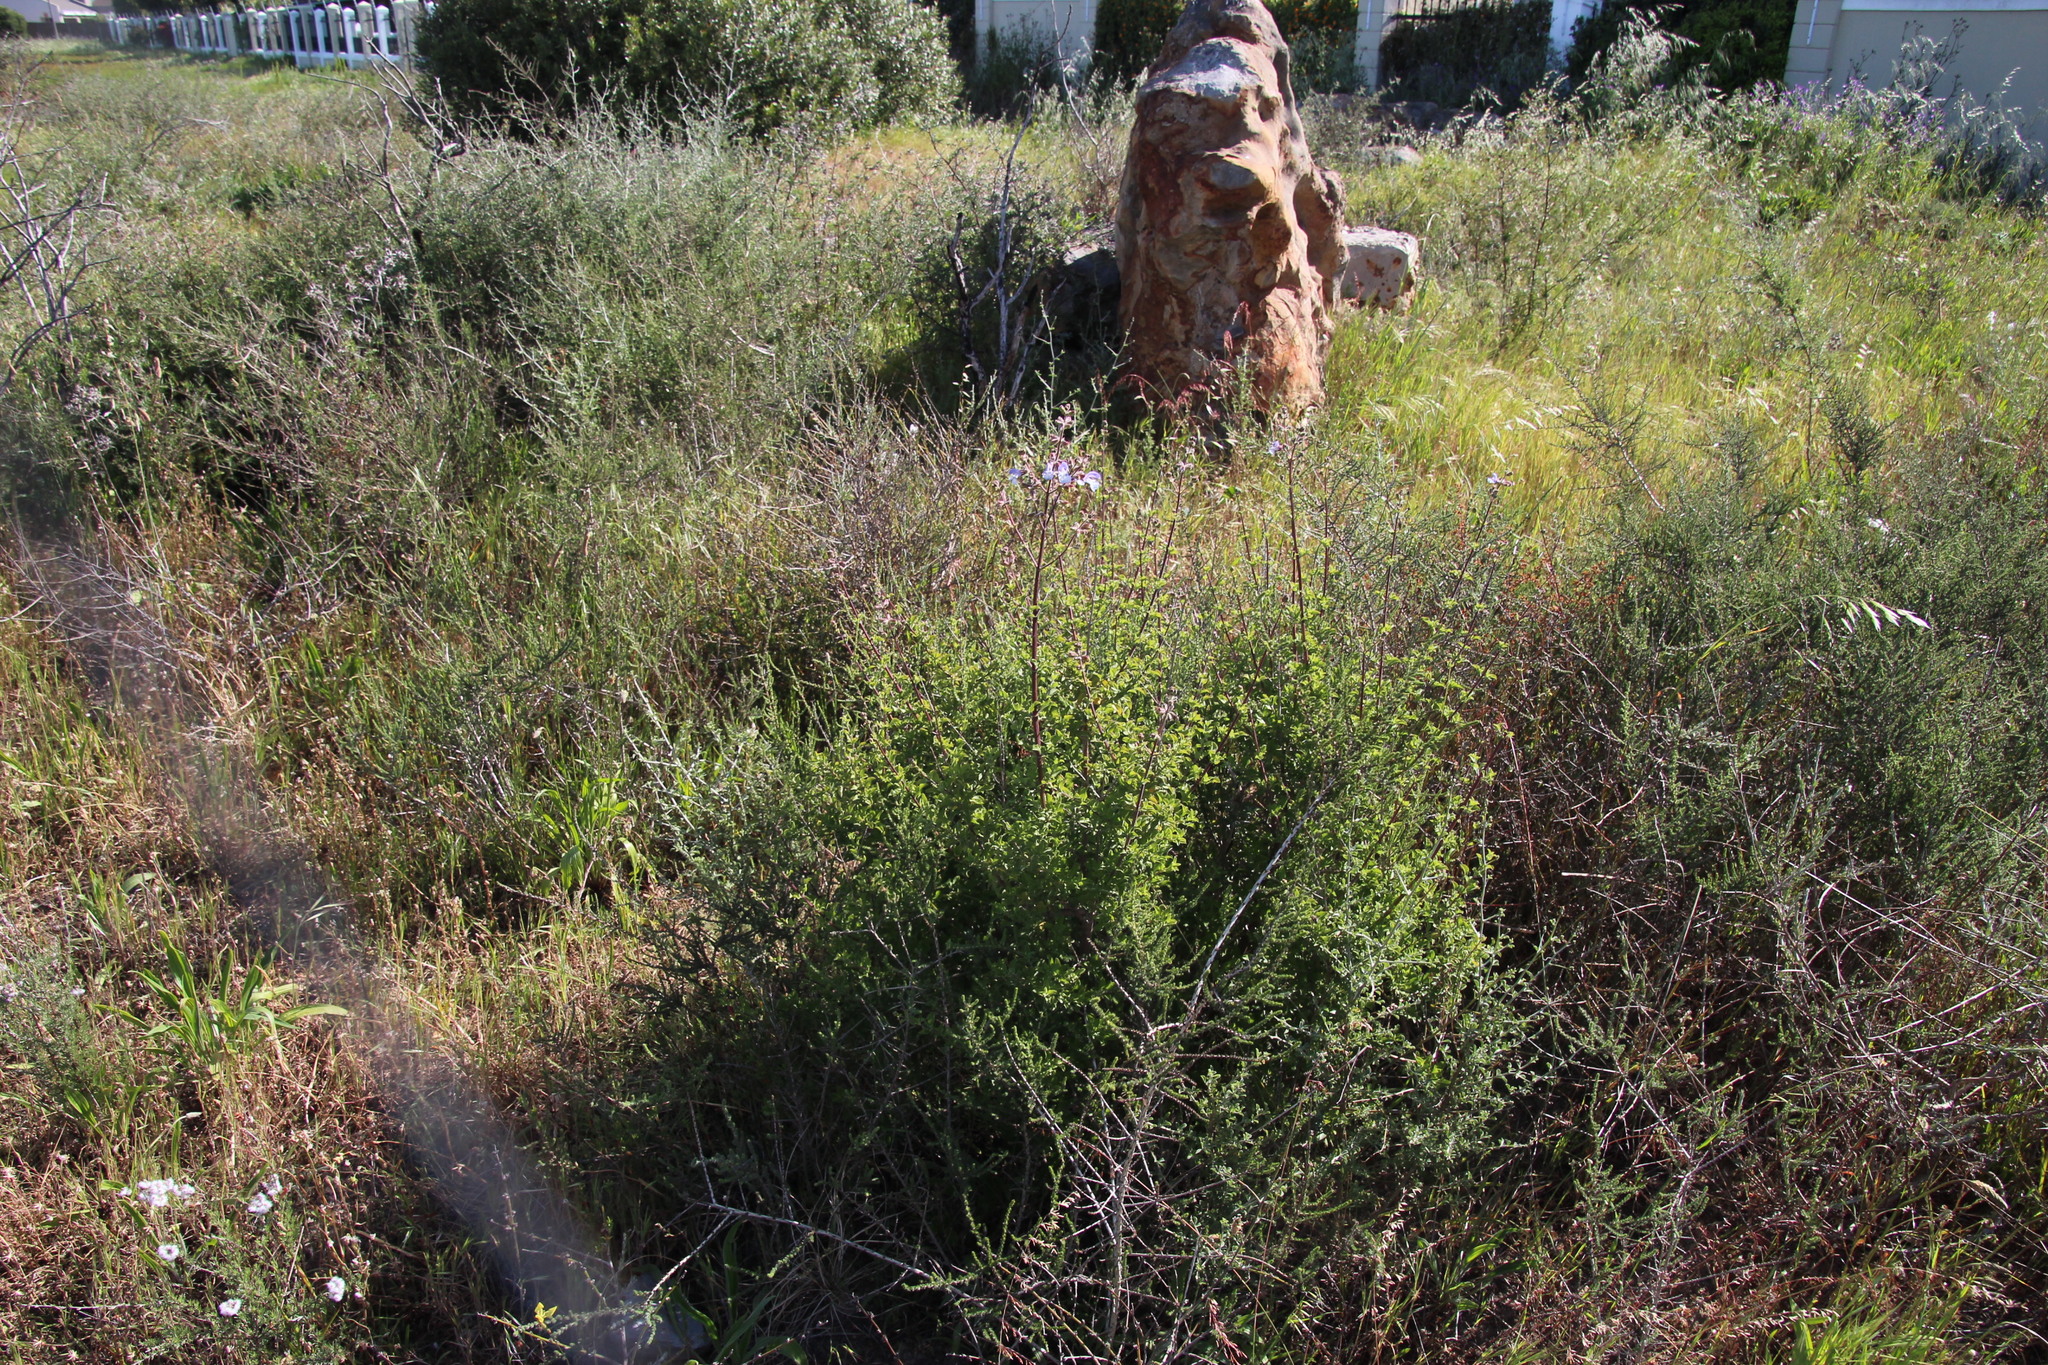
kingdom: Plantae
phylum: Tracheophyta
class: Magnoliopsida
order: Lamiales
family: Lamiaceae
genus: Salvia
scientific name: Salvia africana
